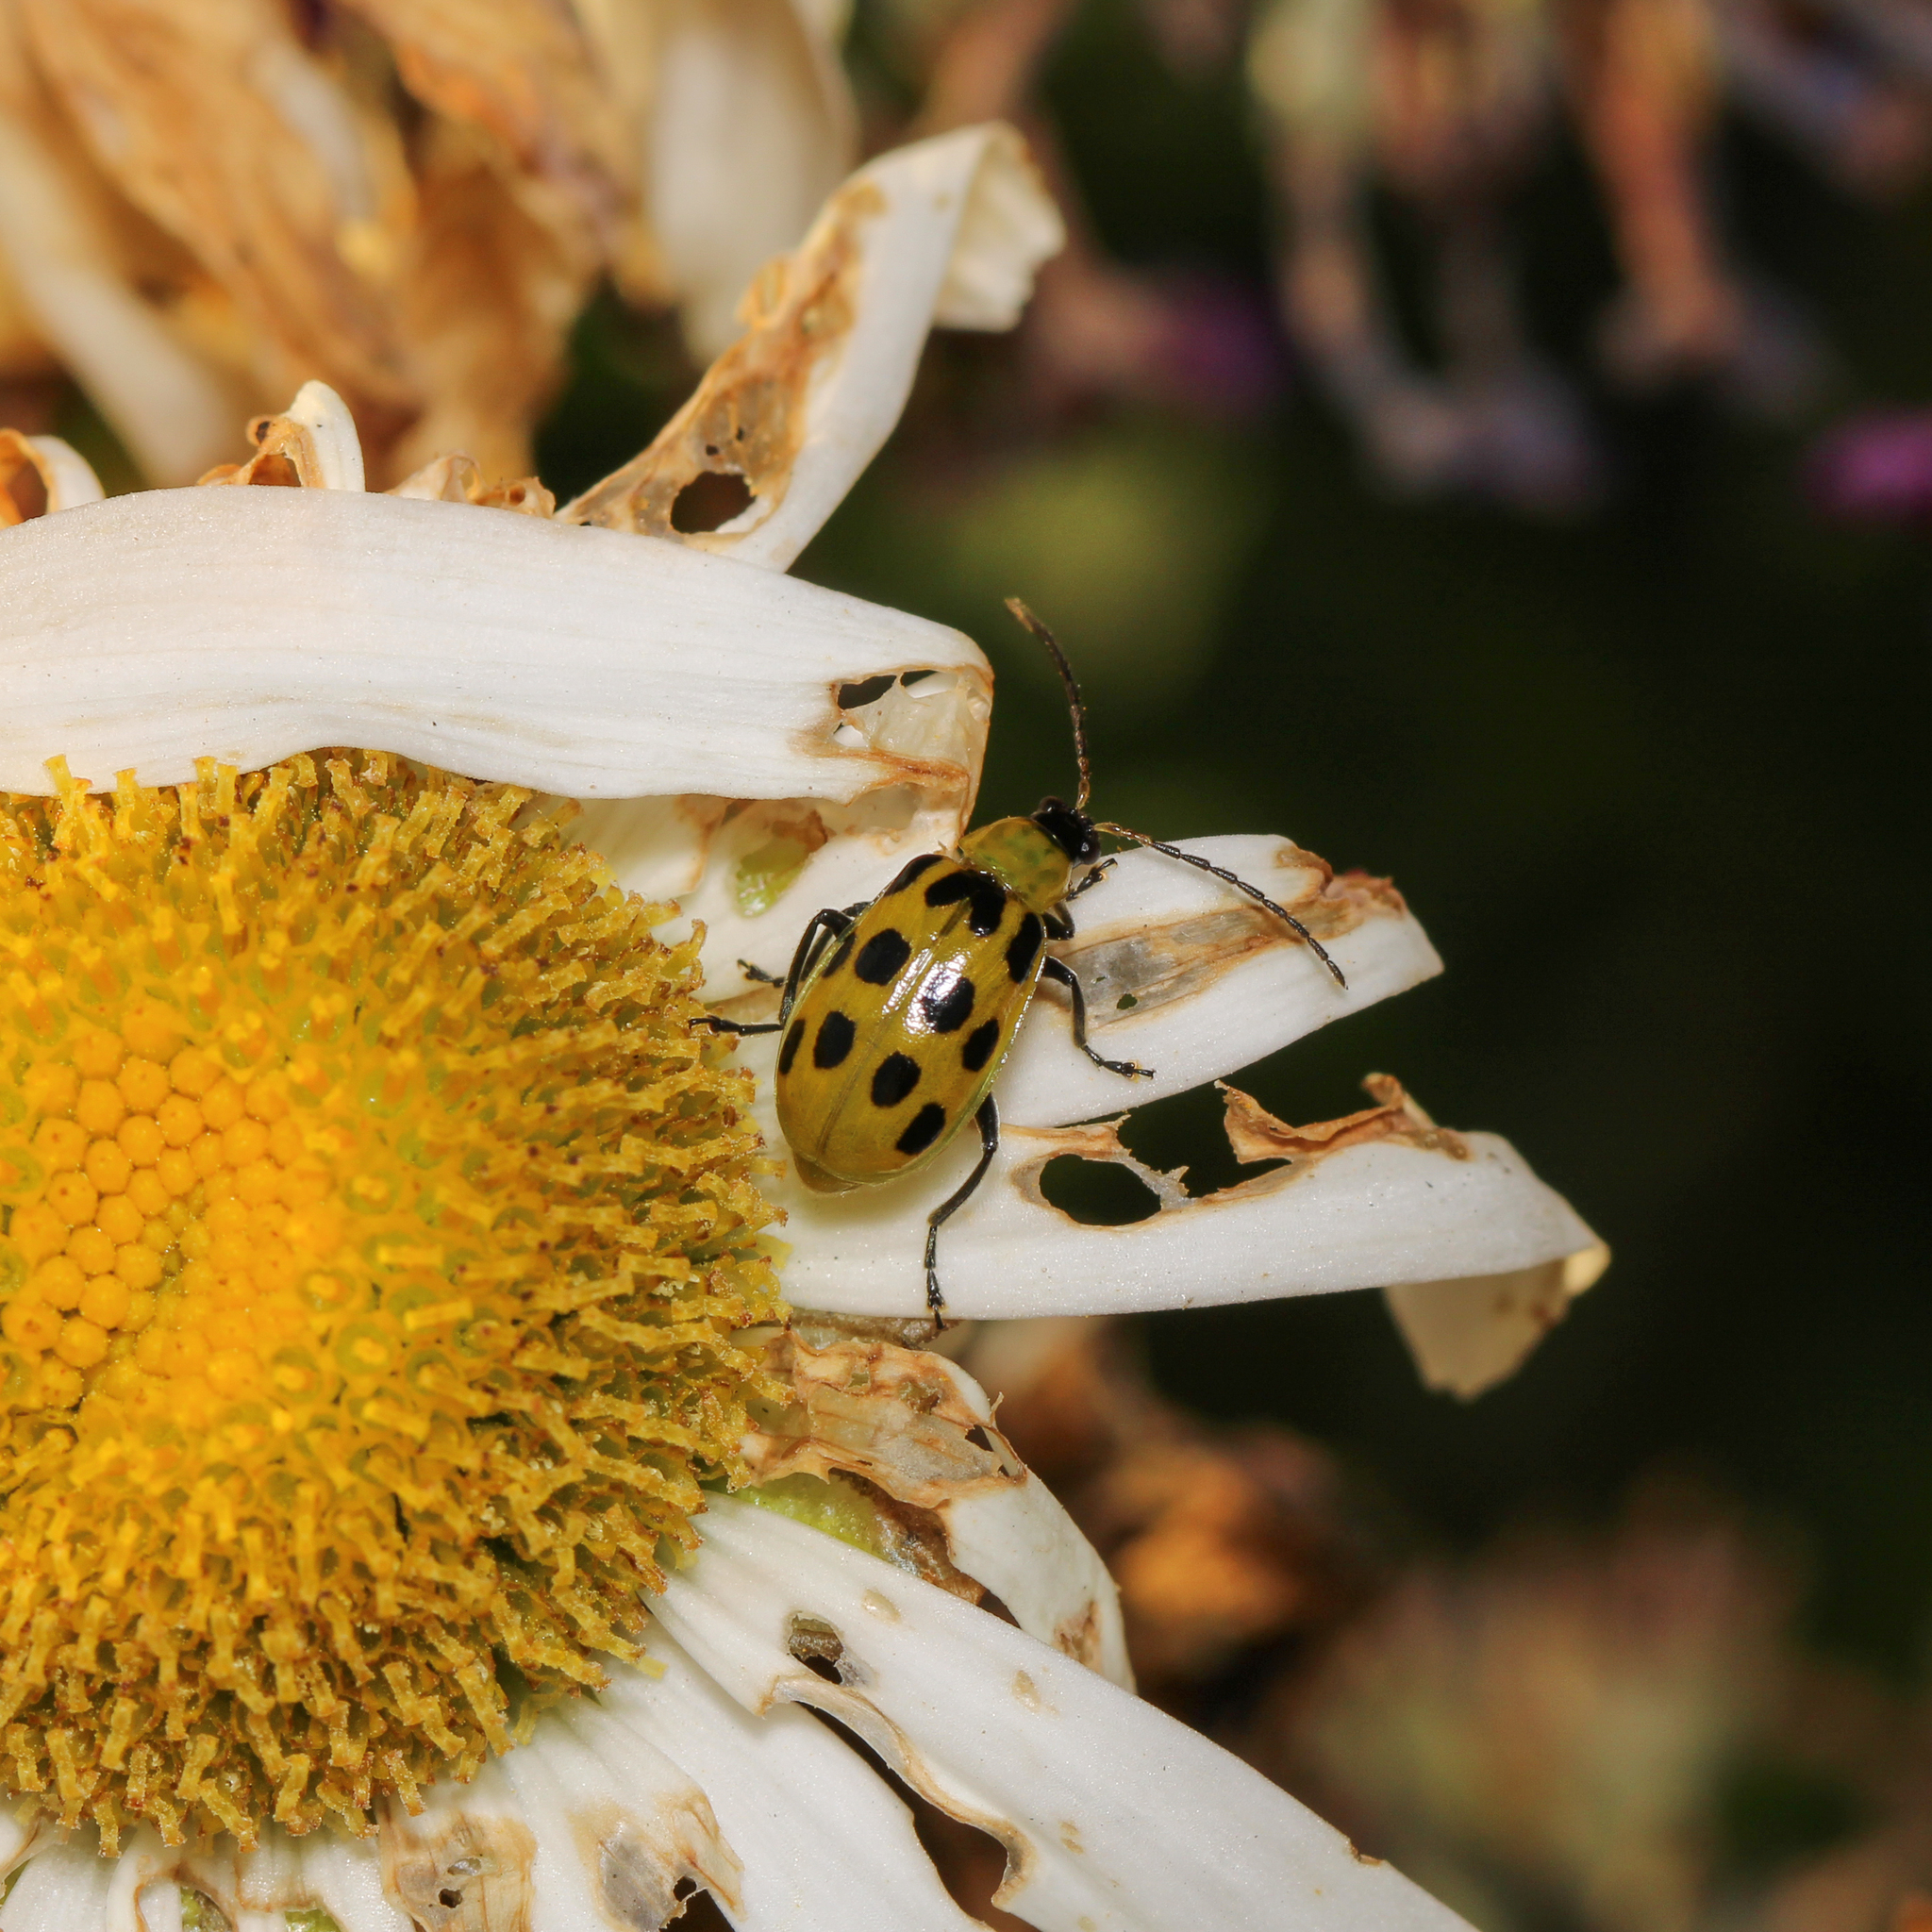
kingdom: Animalia
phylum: Arthropoda
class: Insecta
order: Coleoptera
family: Chrysomelidae
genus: Diabrotica
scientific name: Diabrotica undecimpunctata
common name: Spotted cucumber beetle
